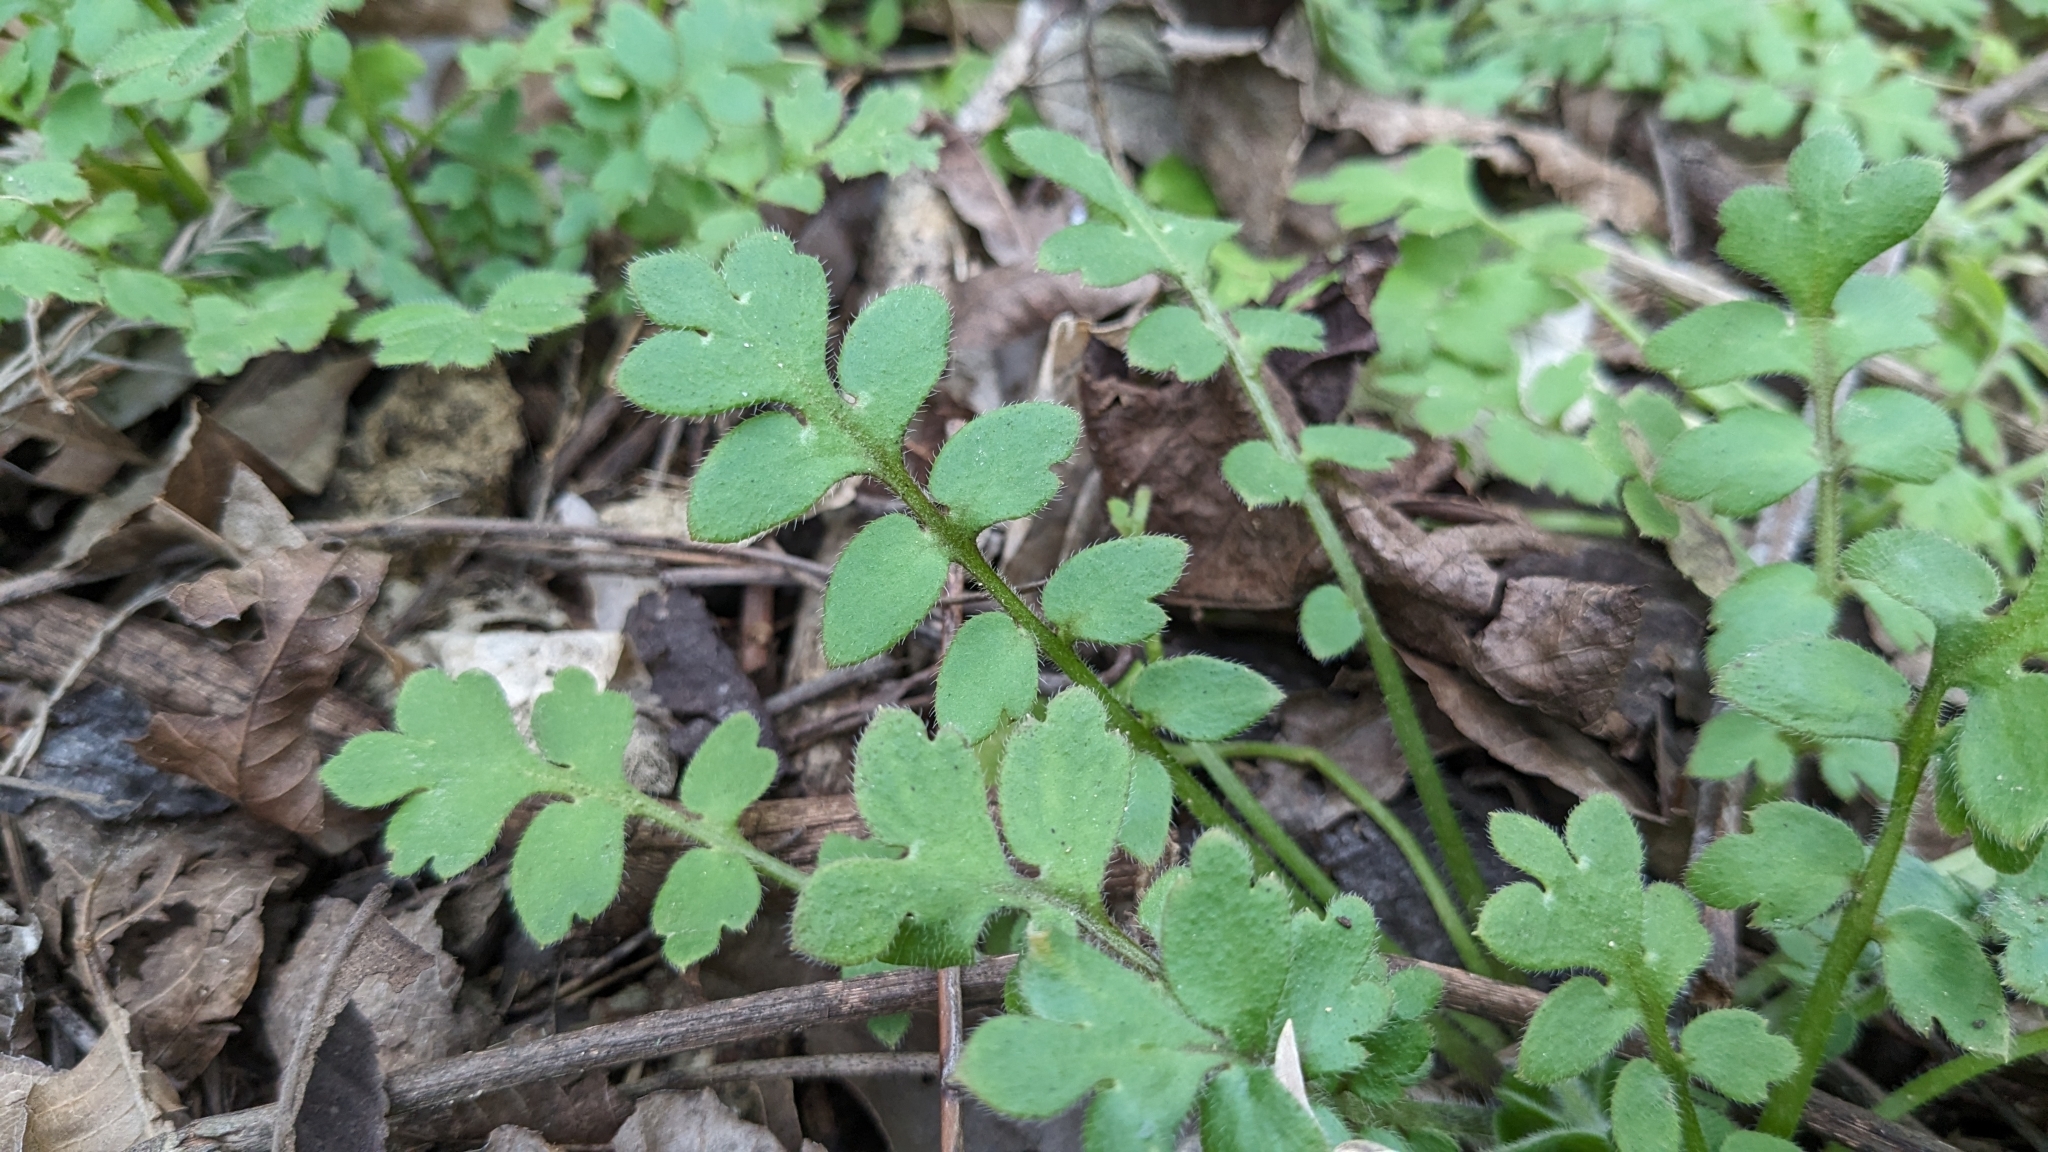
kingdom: Plantae
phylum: Tracheophyta
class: Magnoliopsida
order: Boraginales
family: Hydrophyllaceae
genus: Nemophila
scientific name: Nemophila phacelioides
